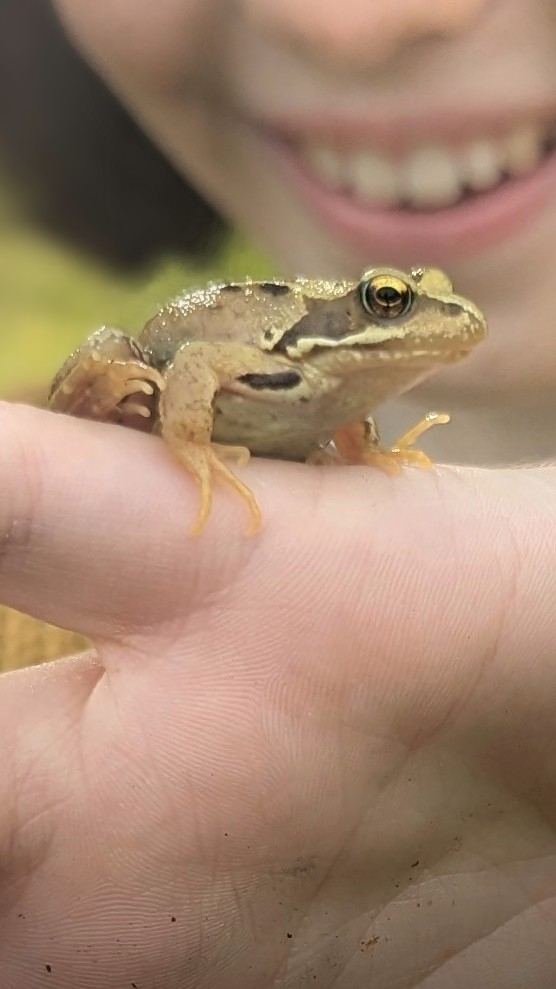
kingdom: Animalia
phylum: Chordata
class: Amphibia
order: Anura
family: Ranidae
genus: Rana
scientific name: Rana temporaria
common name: Common frog
